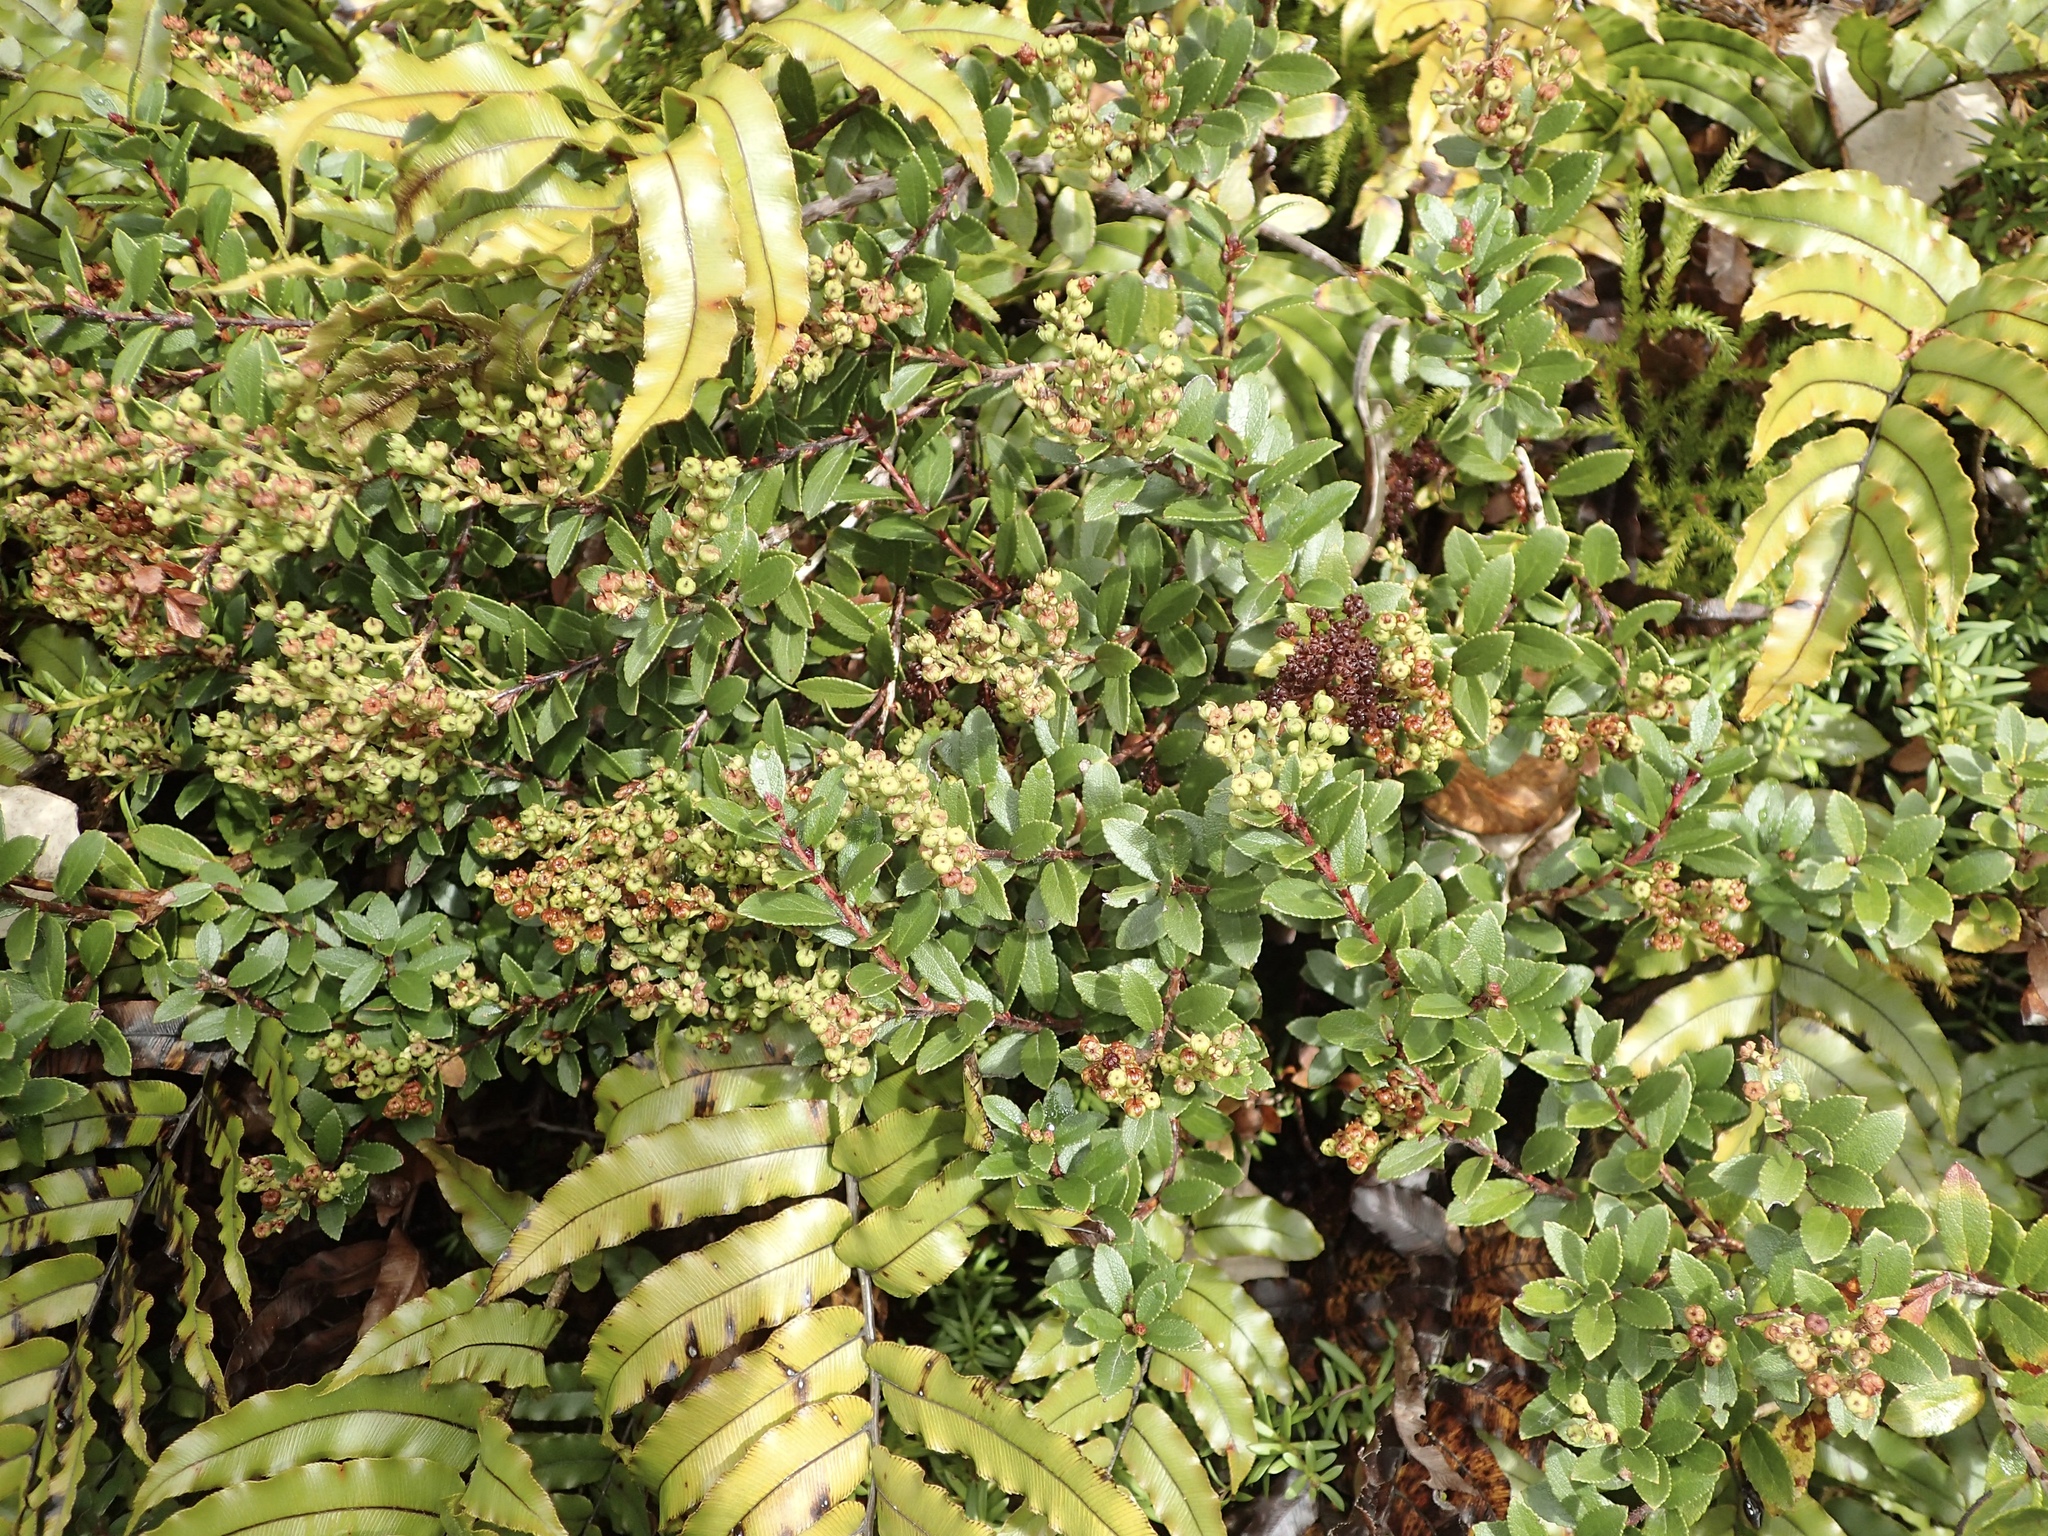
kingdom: Plantae
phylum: Tracheophyta
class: Magnoliopsida
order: Ericales
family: Ericaceae
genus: Gaultheria
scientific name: Gaultheria crassa
